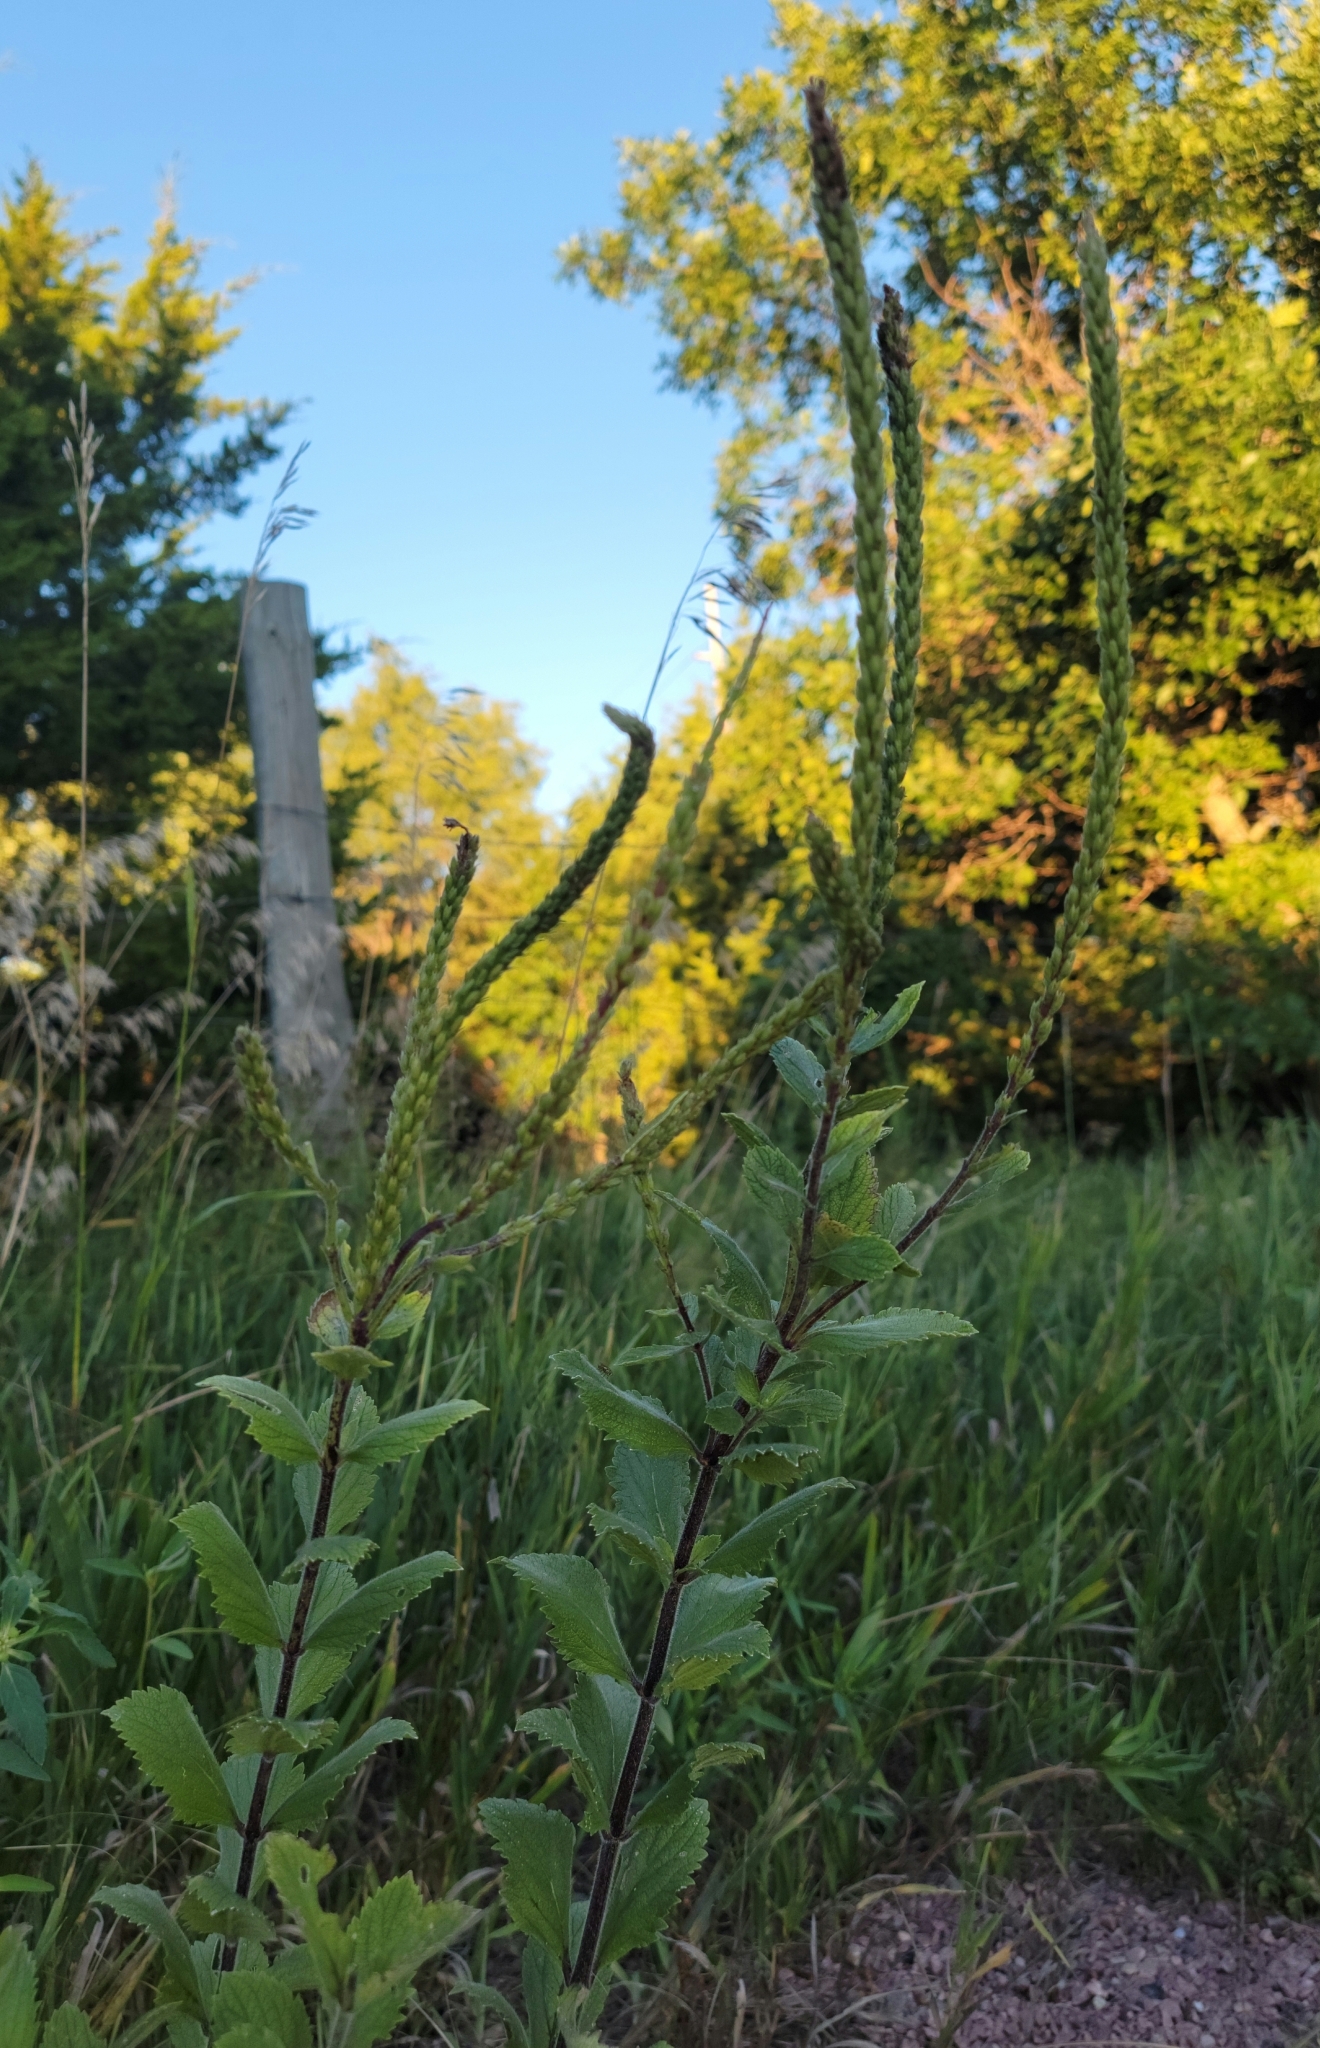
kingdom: Plantae
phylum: Tracheophyta
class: Magnoliopsida
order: Lamiales
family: Verbenaceae
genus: Verbena
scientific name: Verbena stricta
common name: Hoary vervain
